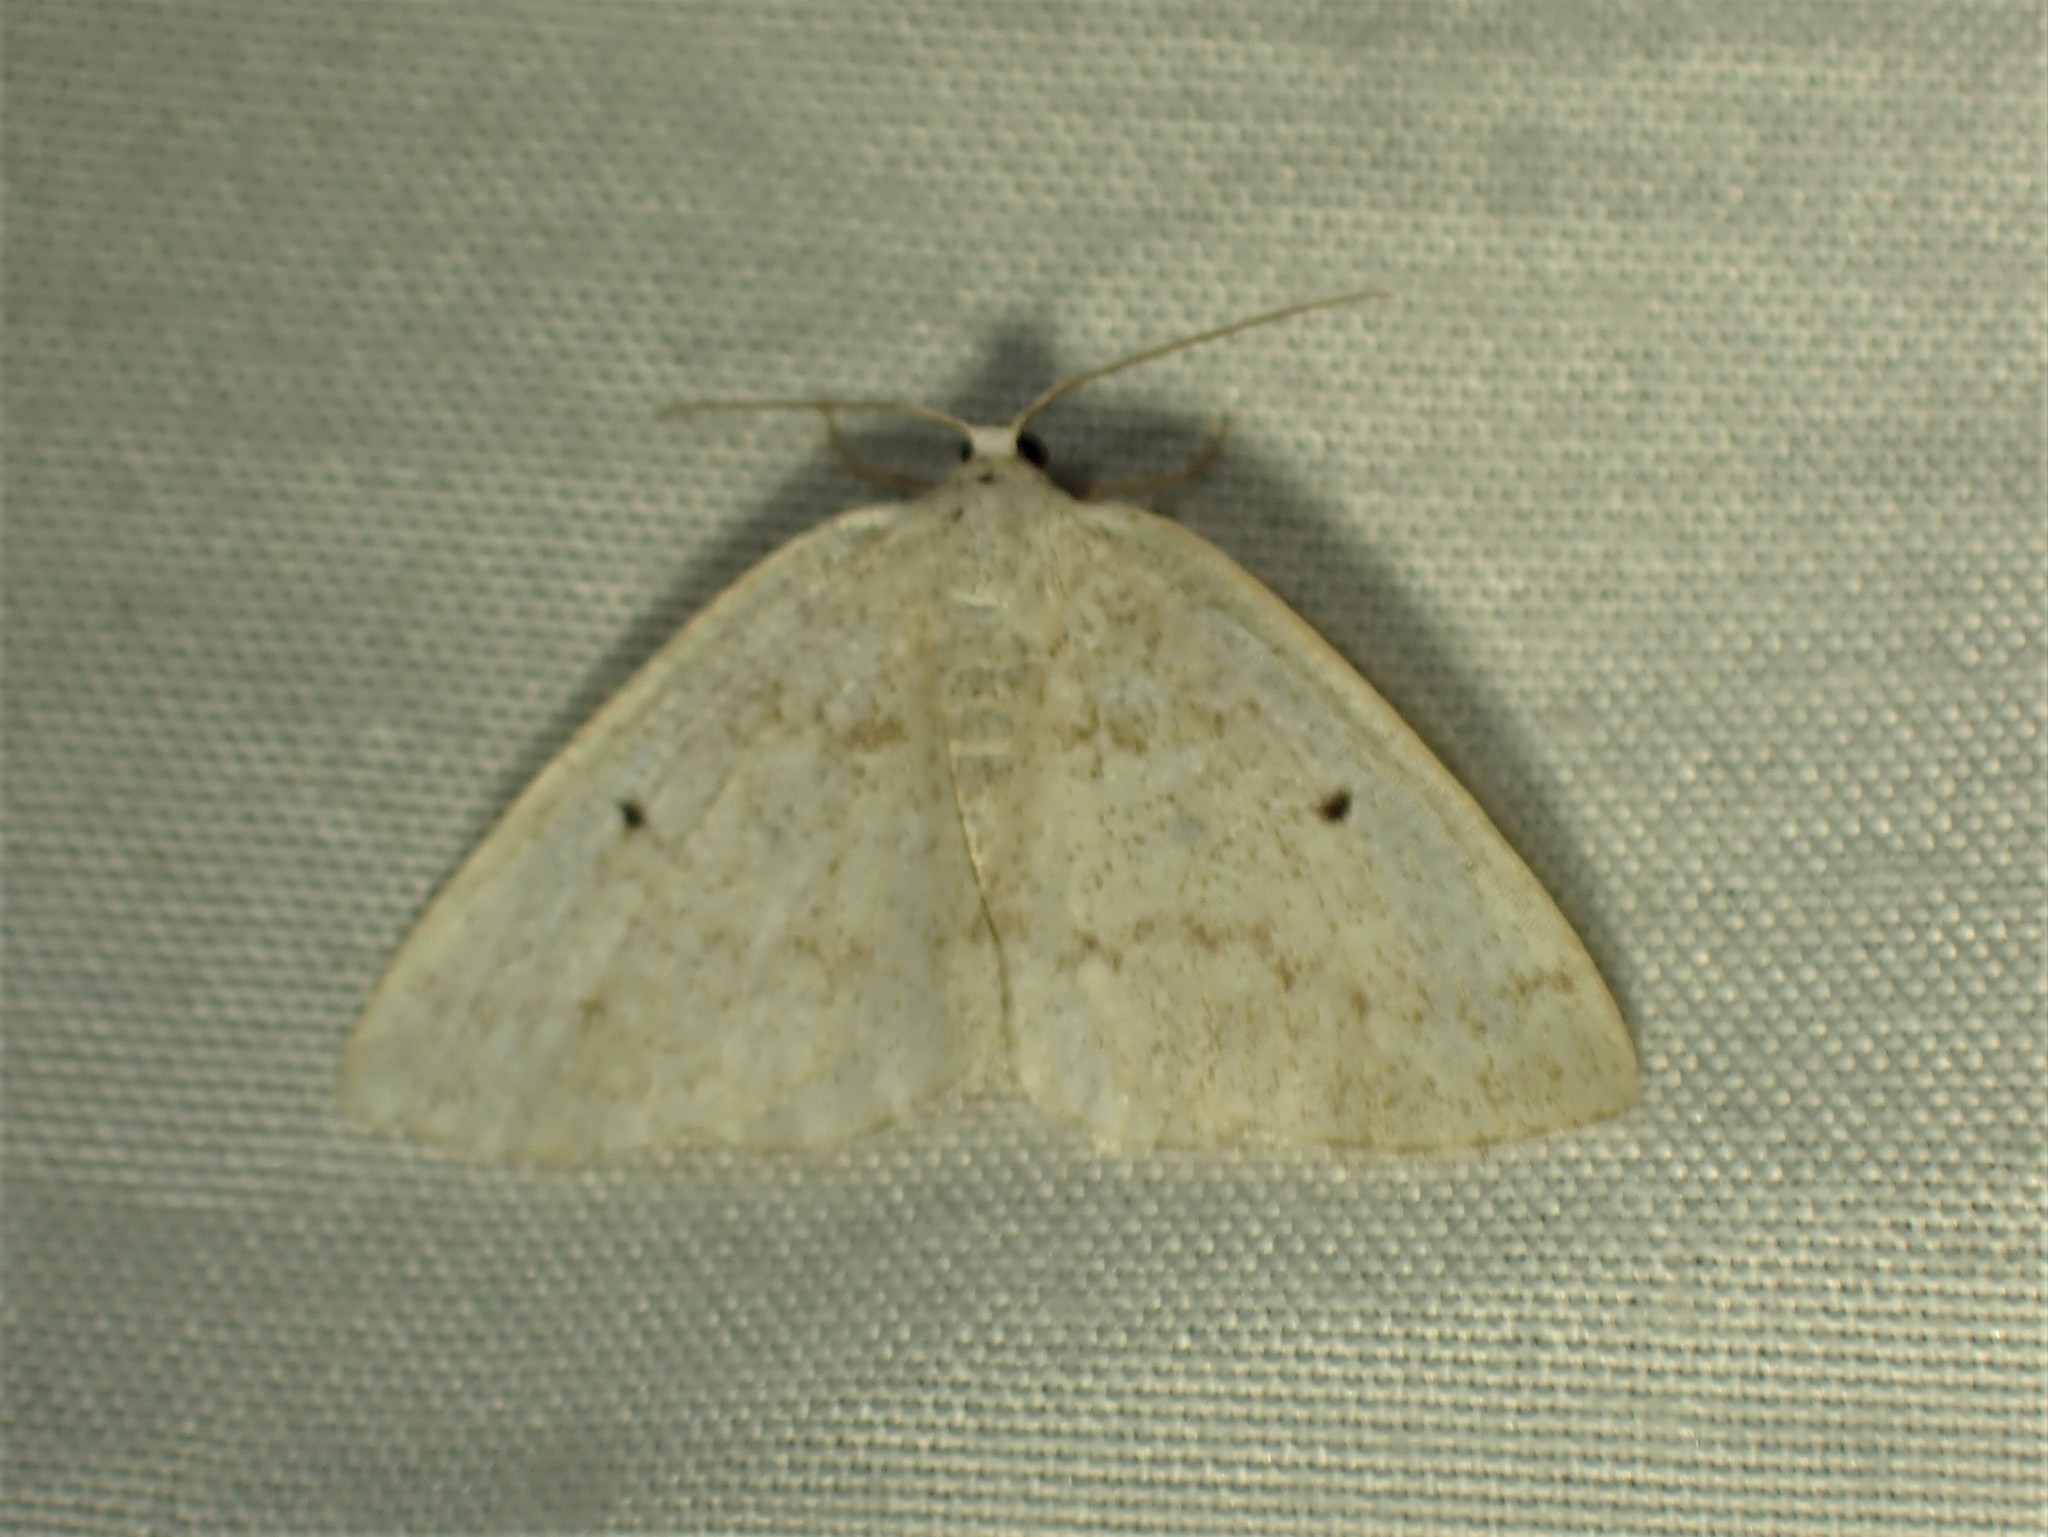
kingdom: Animalia
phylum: Arthropoda
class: Insecta
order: Lepidoptera
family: Geometridae
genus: Lomographa
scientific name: Lomographa glomeraria
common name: Gray spring moth
